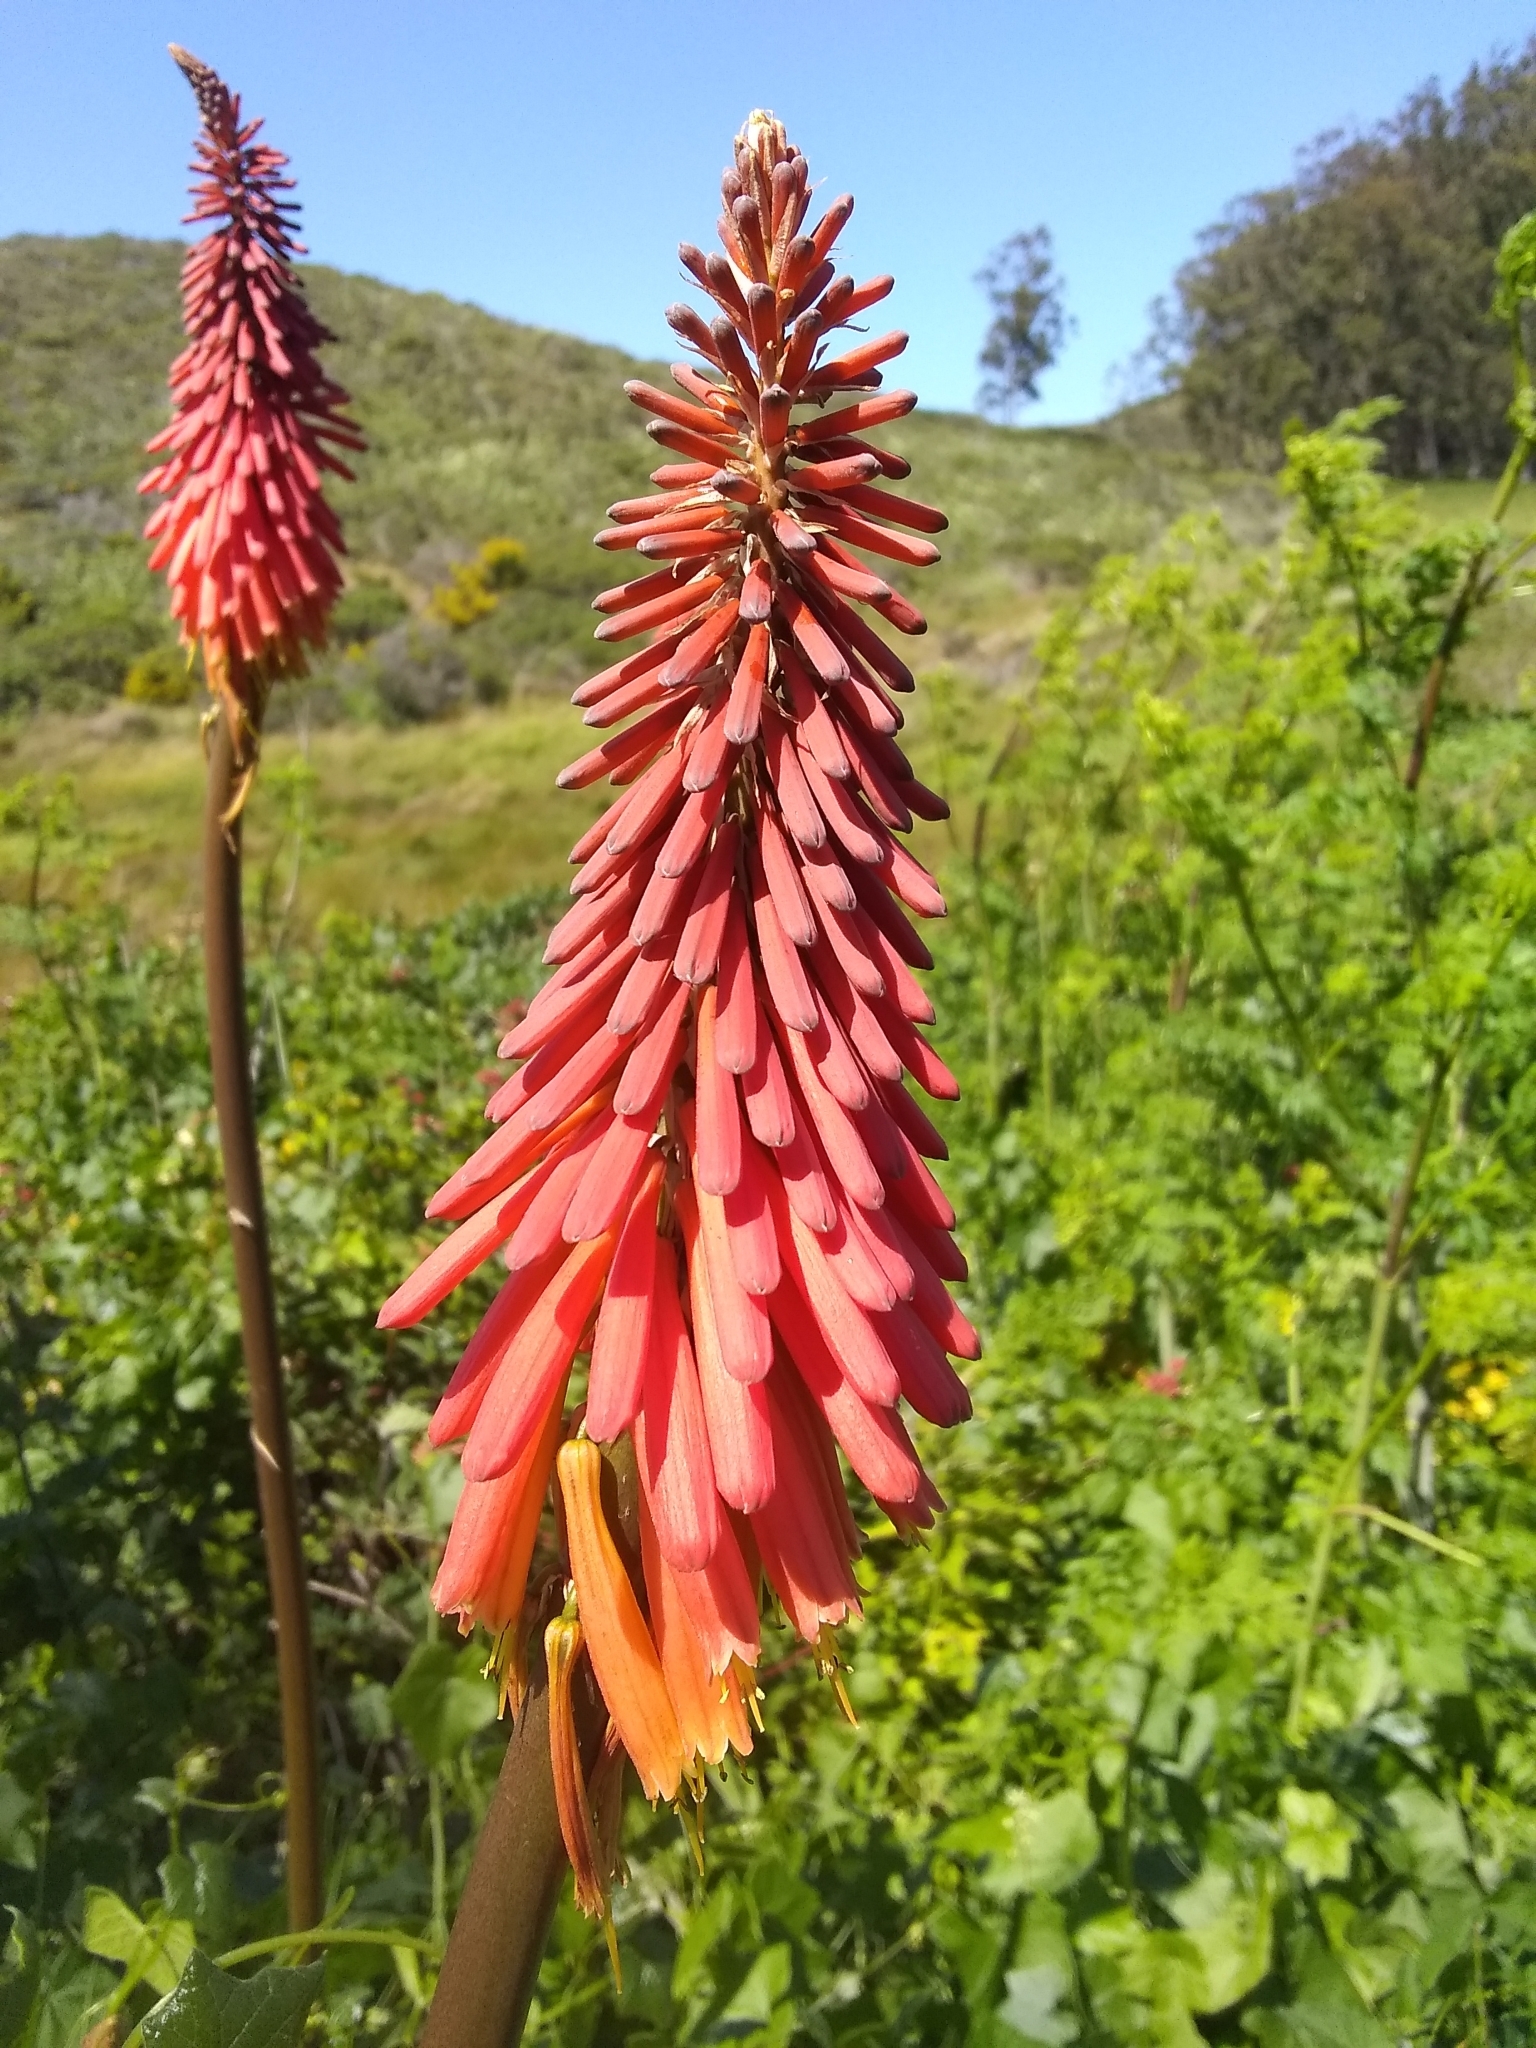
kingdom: Plantae
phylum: Tracheophyta
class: Liliopsida
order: Asparagales
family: Asphodelaceae
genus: Kniphofia
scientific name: Kniphofia uvaria
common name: Red-hot-poker
